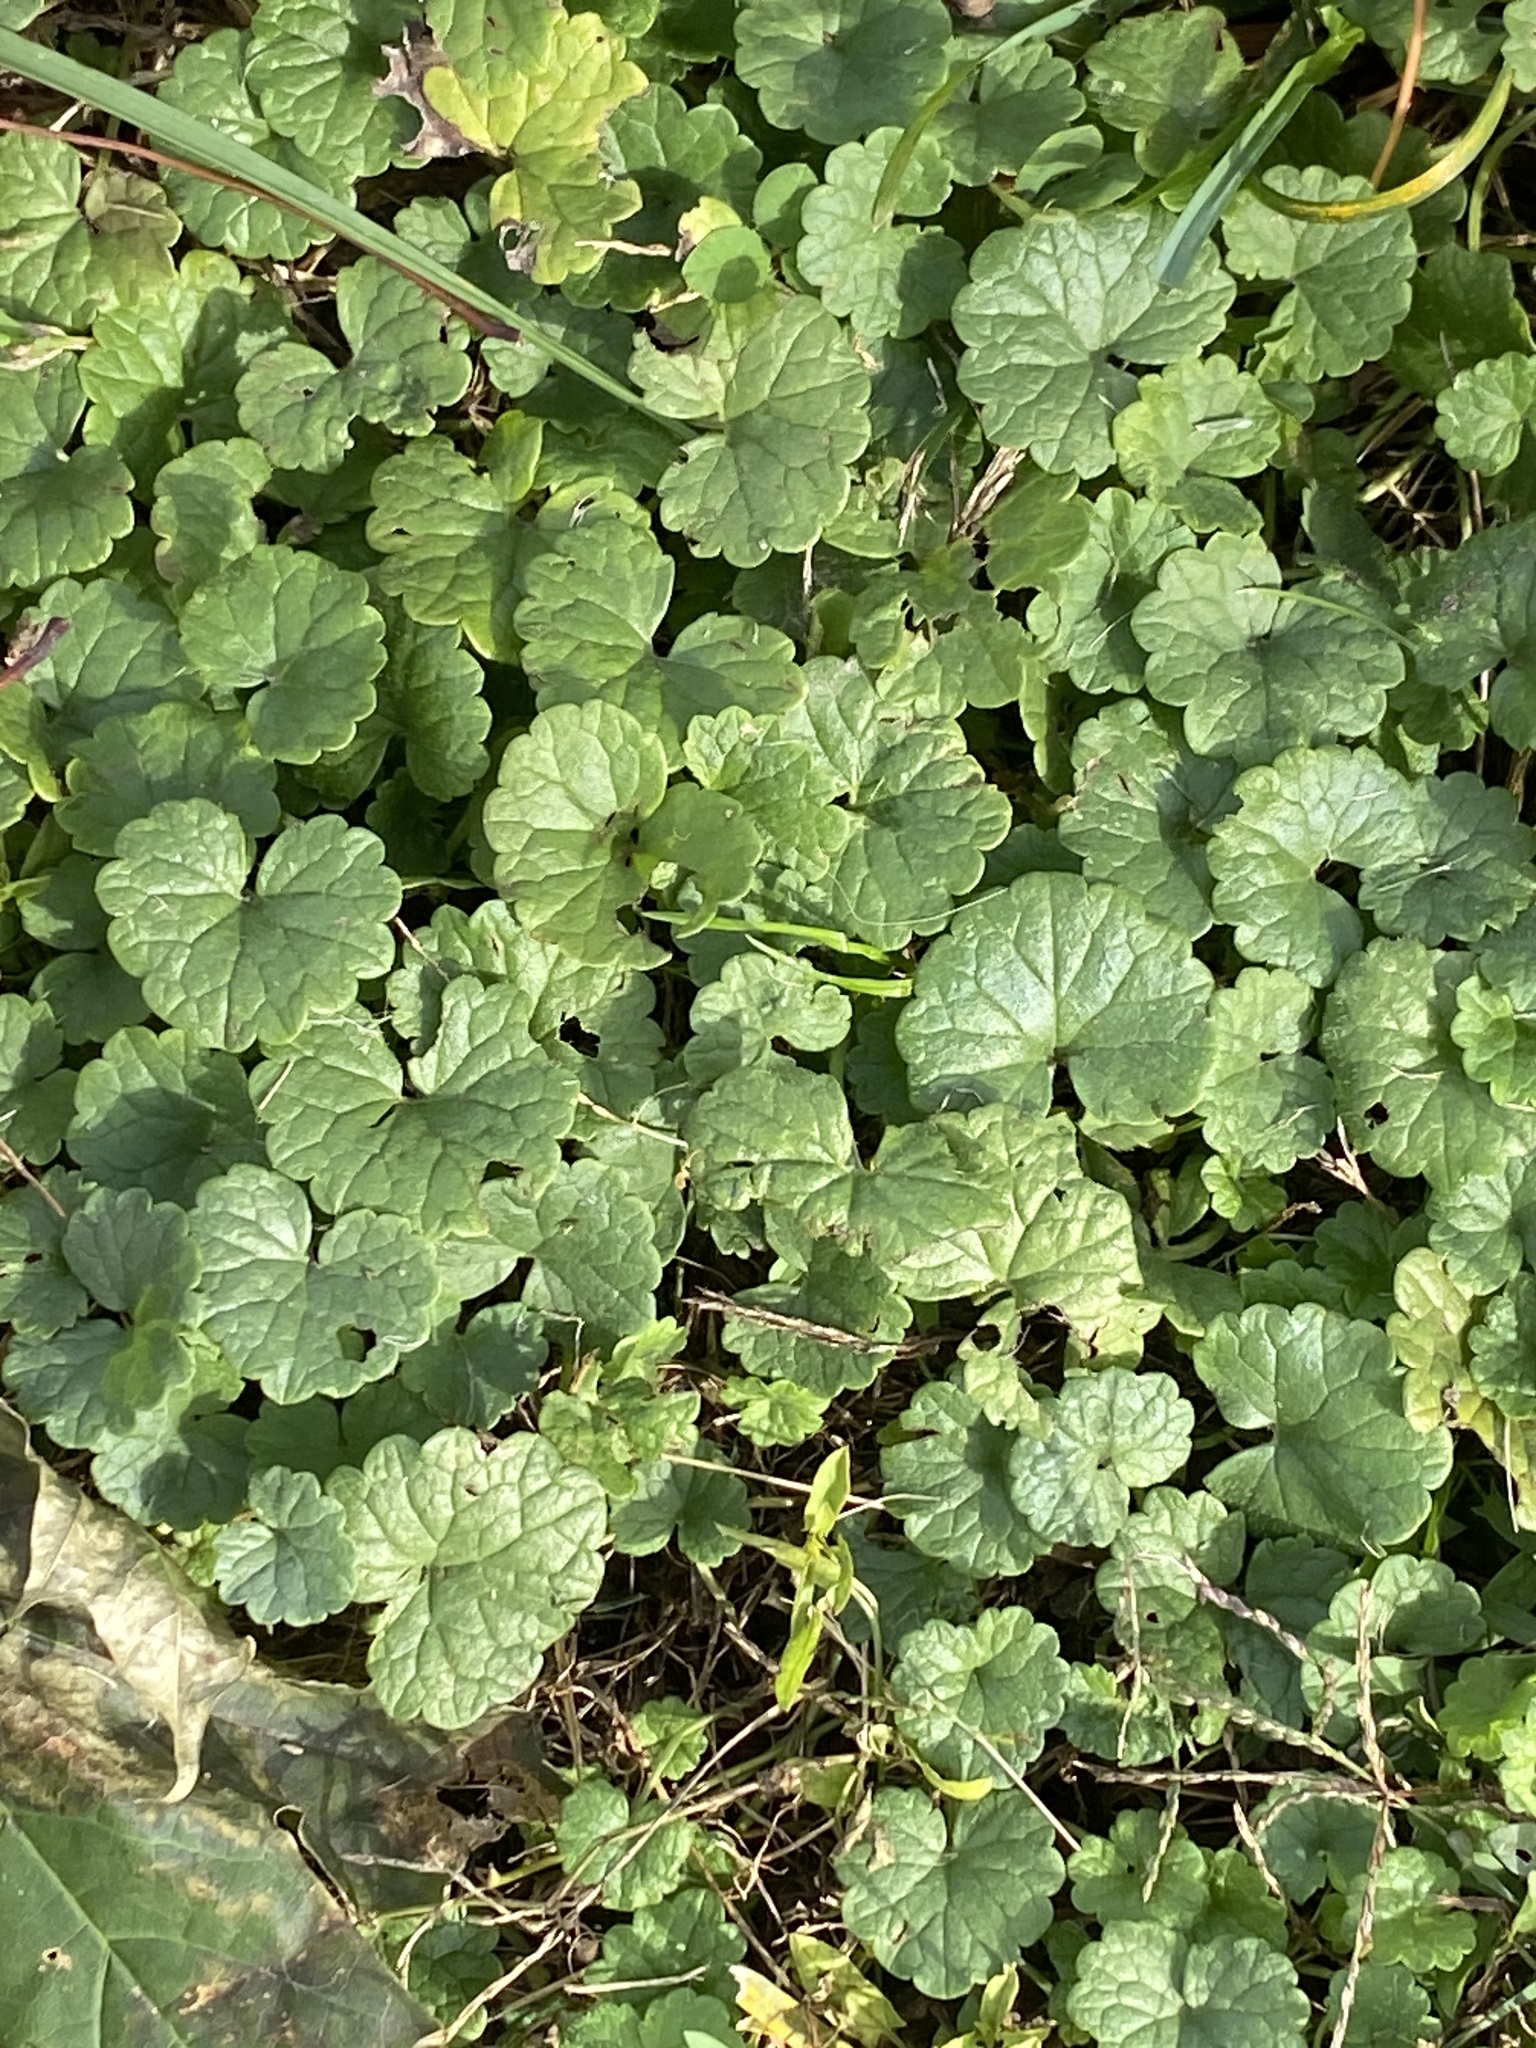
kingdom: Plantae
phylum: Tracheophyta
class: Magnoliopsida
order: Lamiales
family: Lamiaceae
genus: Glechoma
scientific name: Glechoma hederacea
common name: Ground ivy
